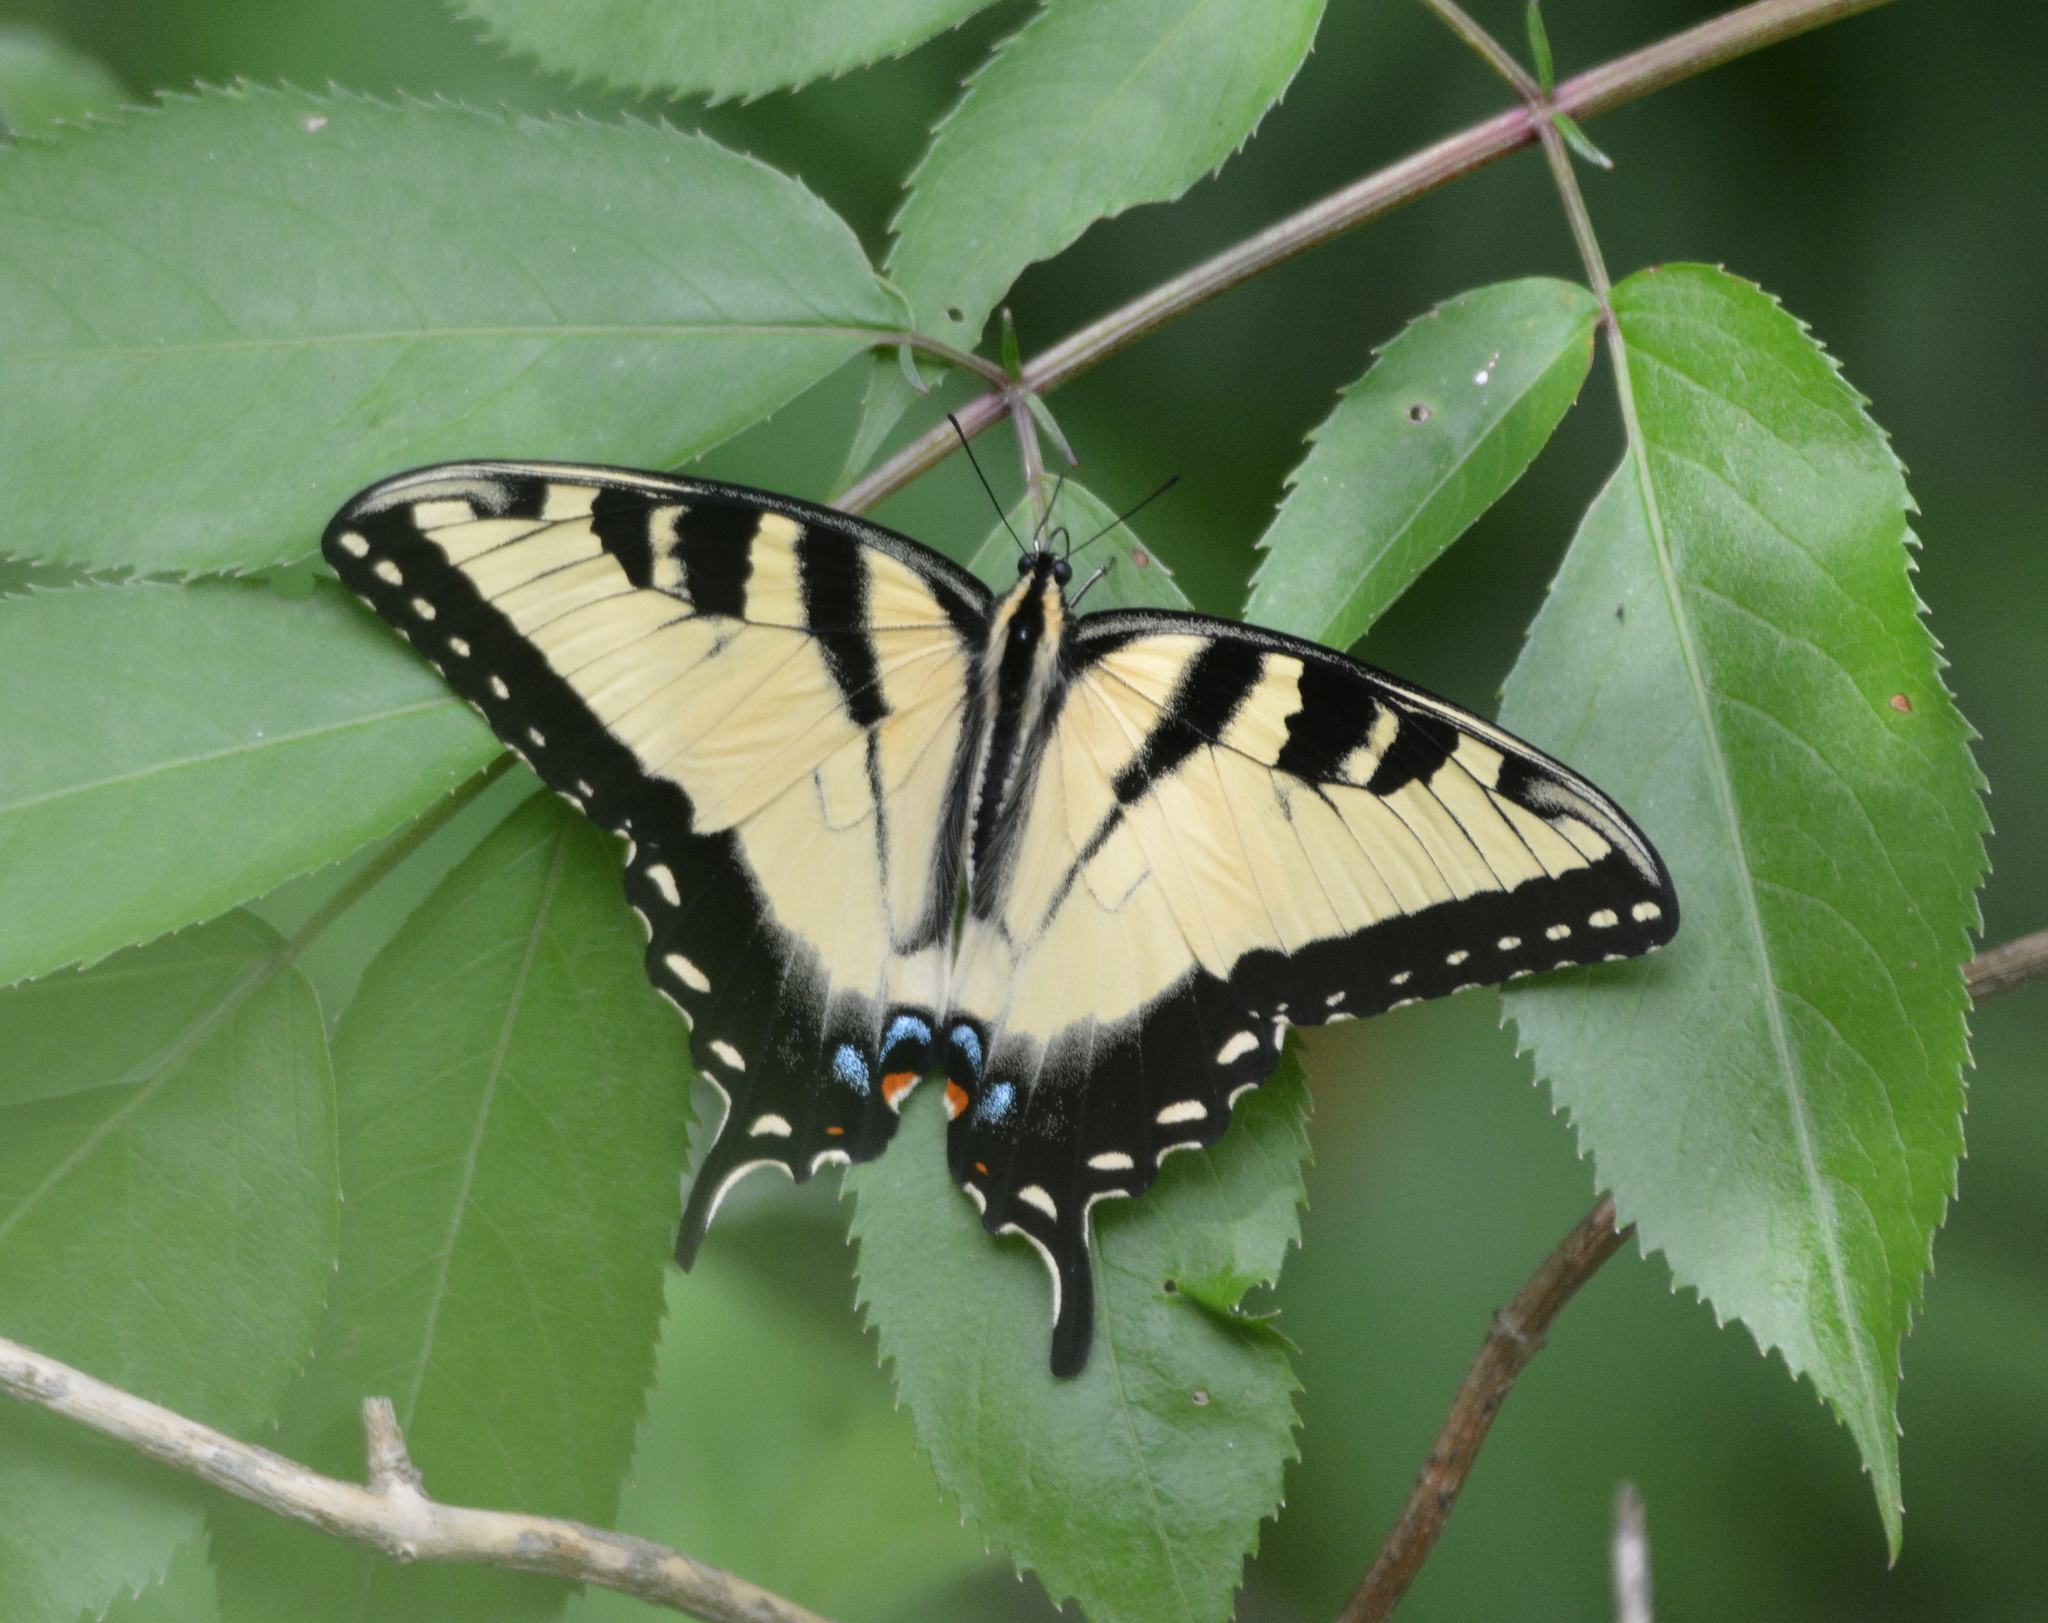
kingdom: Animalia
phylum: Arthropoda
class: Insecta
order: Lepidoptera
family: Papilionidae
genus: Papilio
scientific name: Papilio glaucus
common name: Tiger swallowtail
